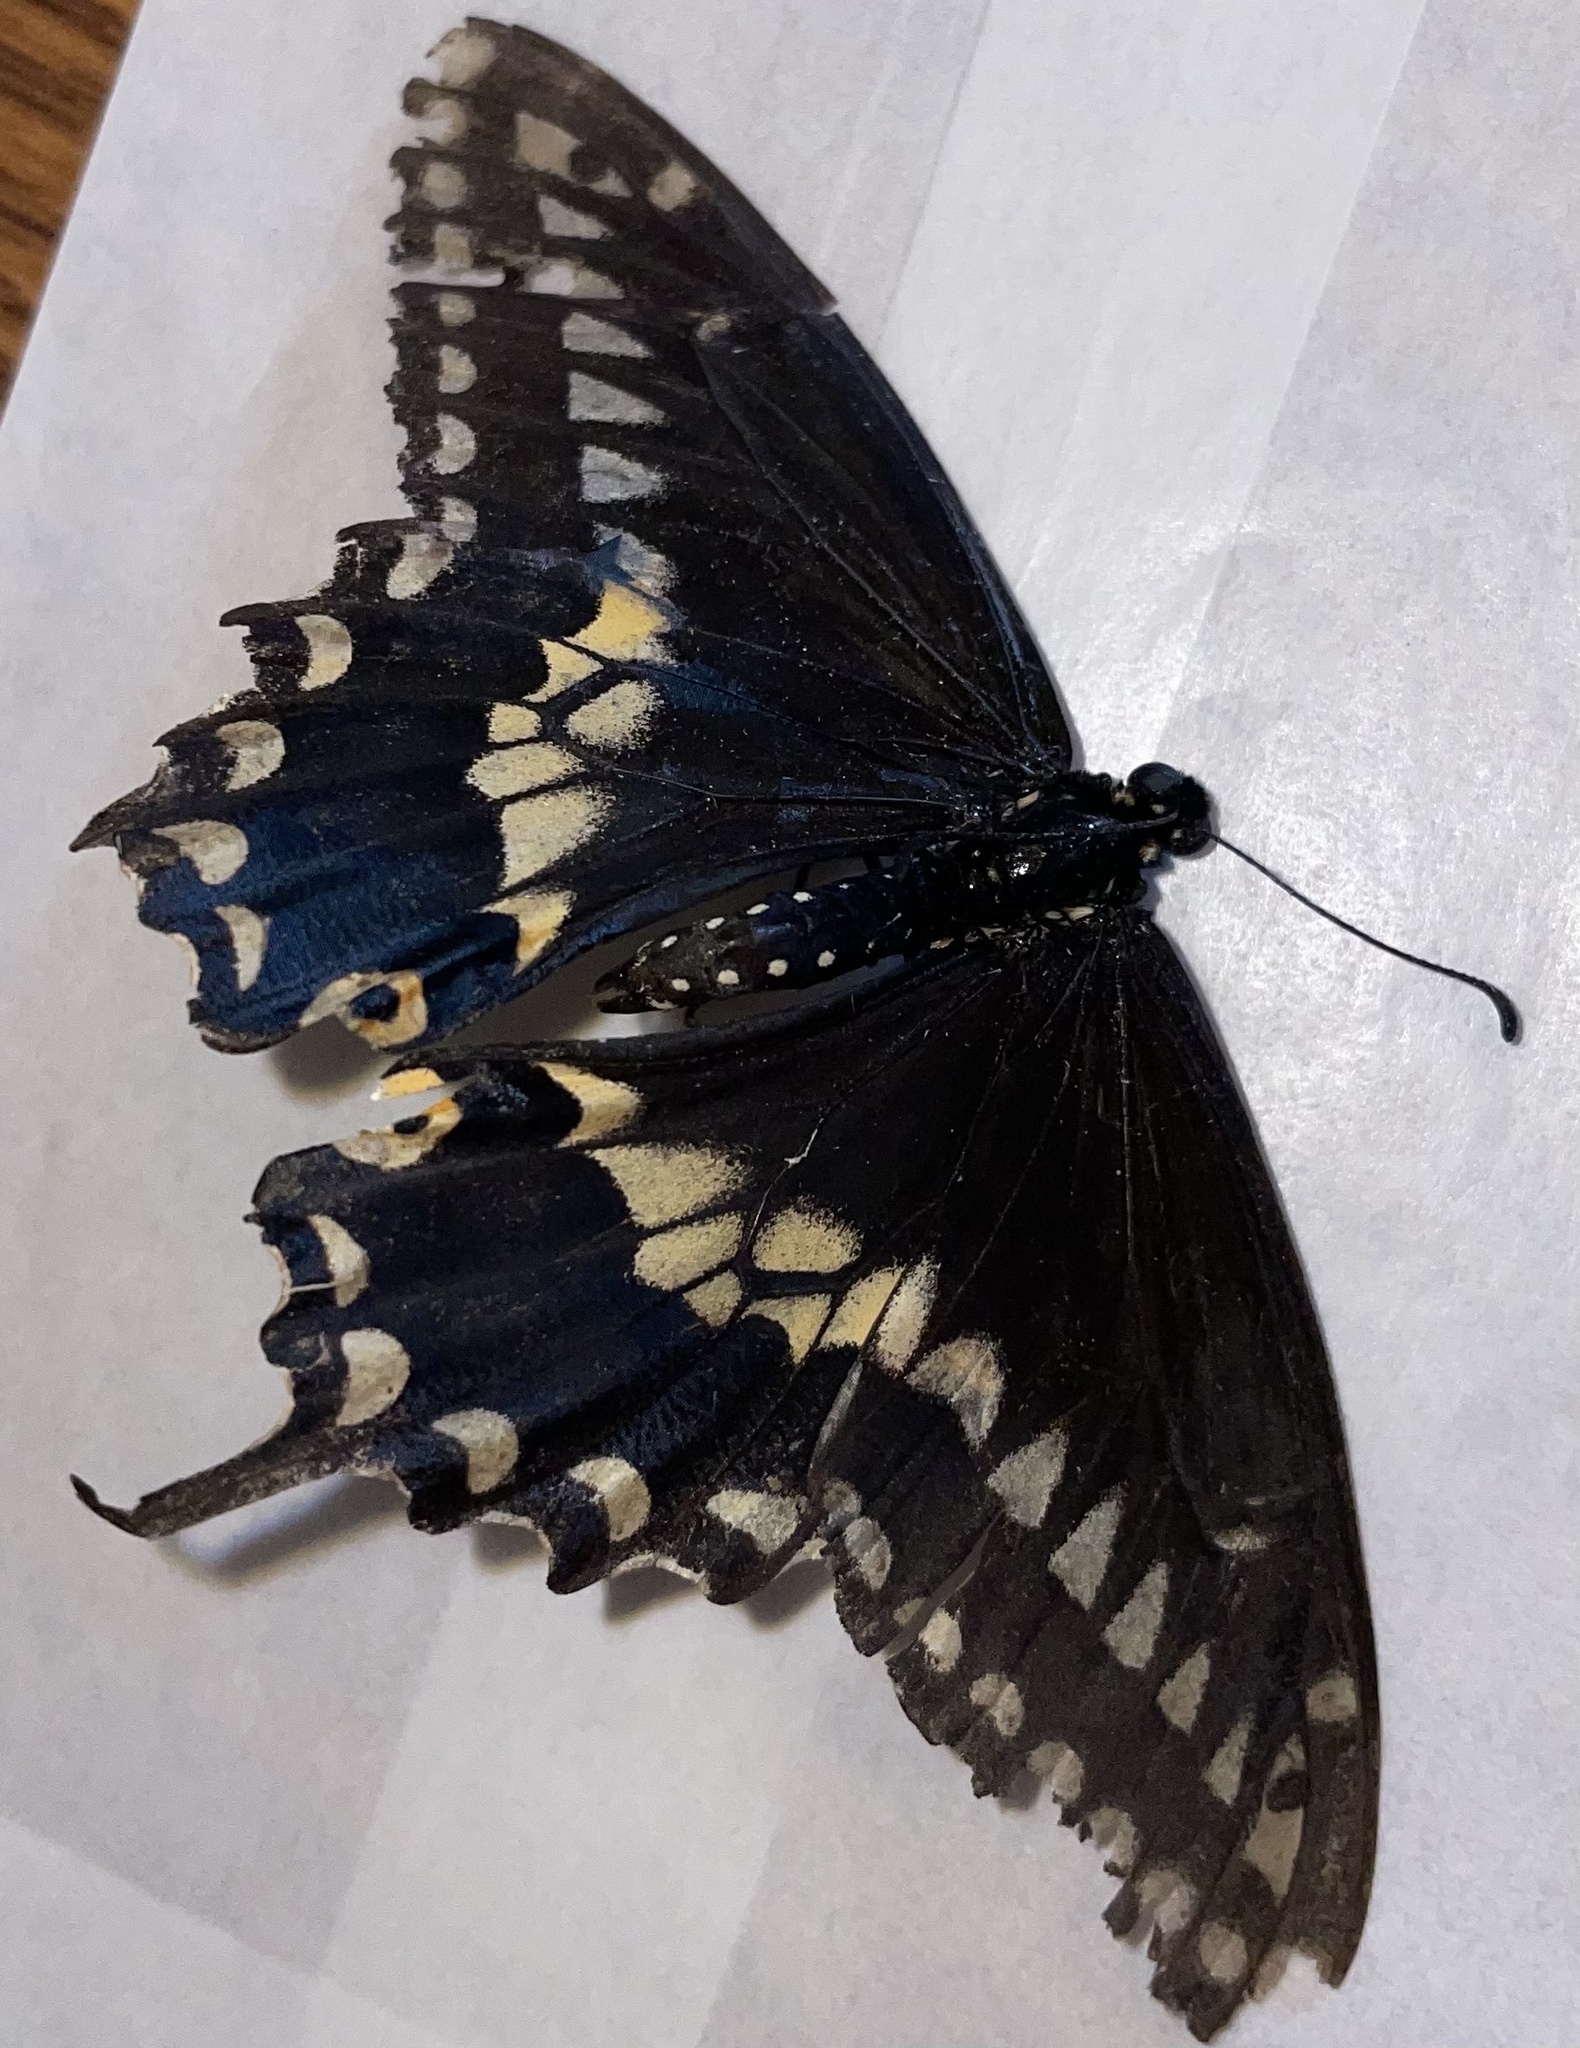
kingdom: Animalia
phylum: Arthropoda
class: Insecta
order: Lepidoptera
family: Papilionidae
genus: Papilio
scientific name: Papilio polyxenes
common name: Black swallowtail
